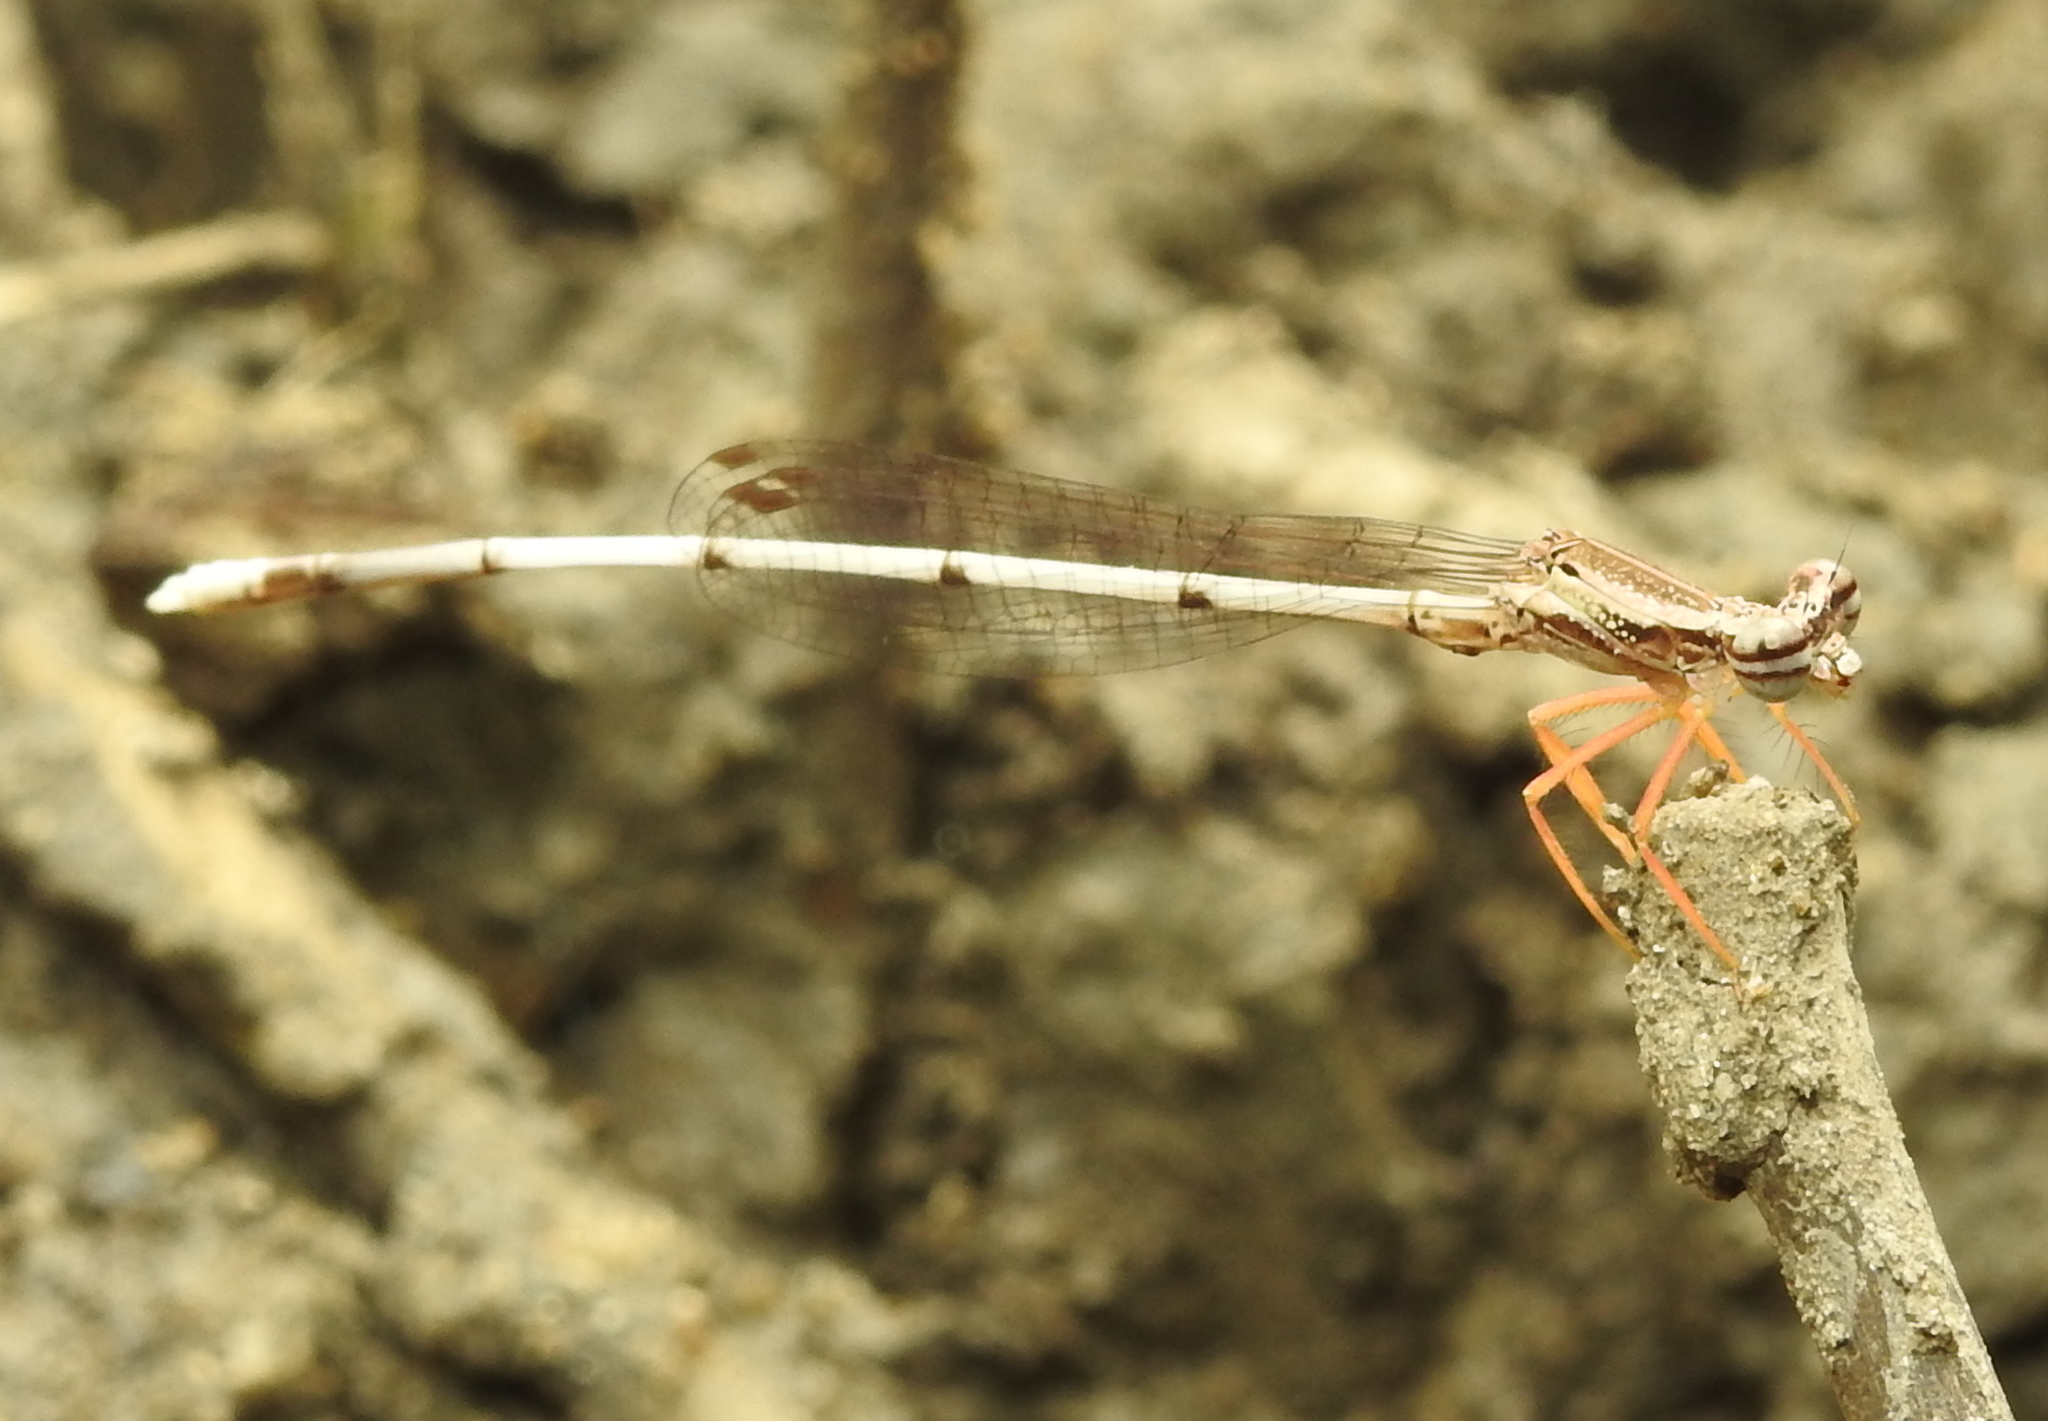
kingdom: Animalia
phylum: Arthropoda
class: Insecta
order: Odonata
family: Platycnemididae
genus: Copera
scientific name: Copera marginipes
